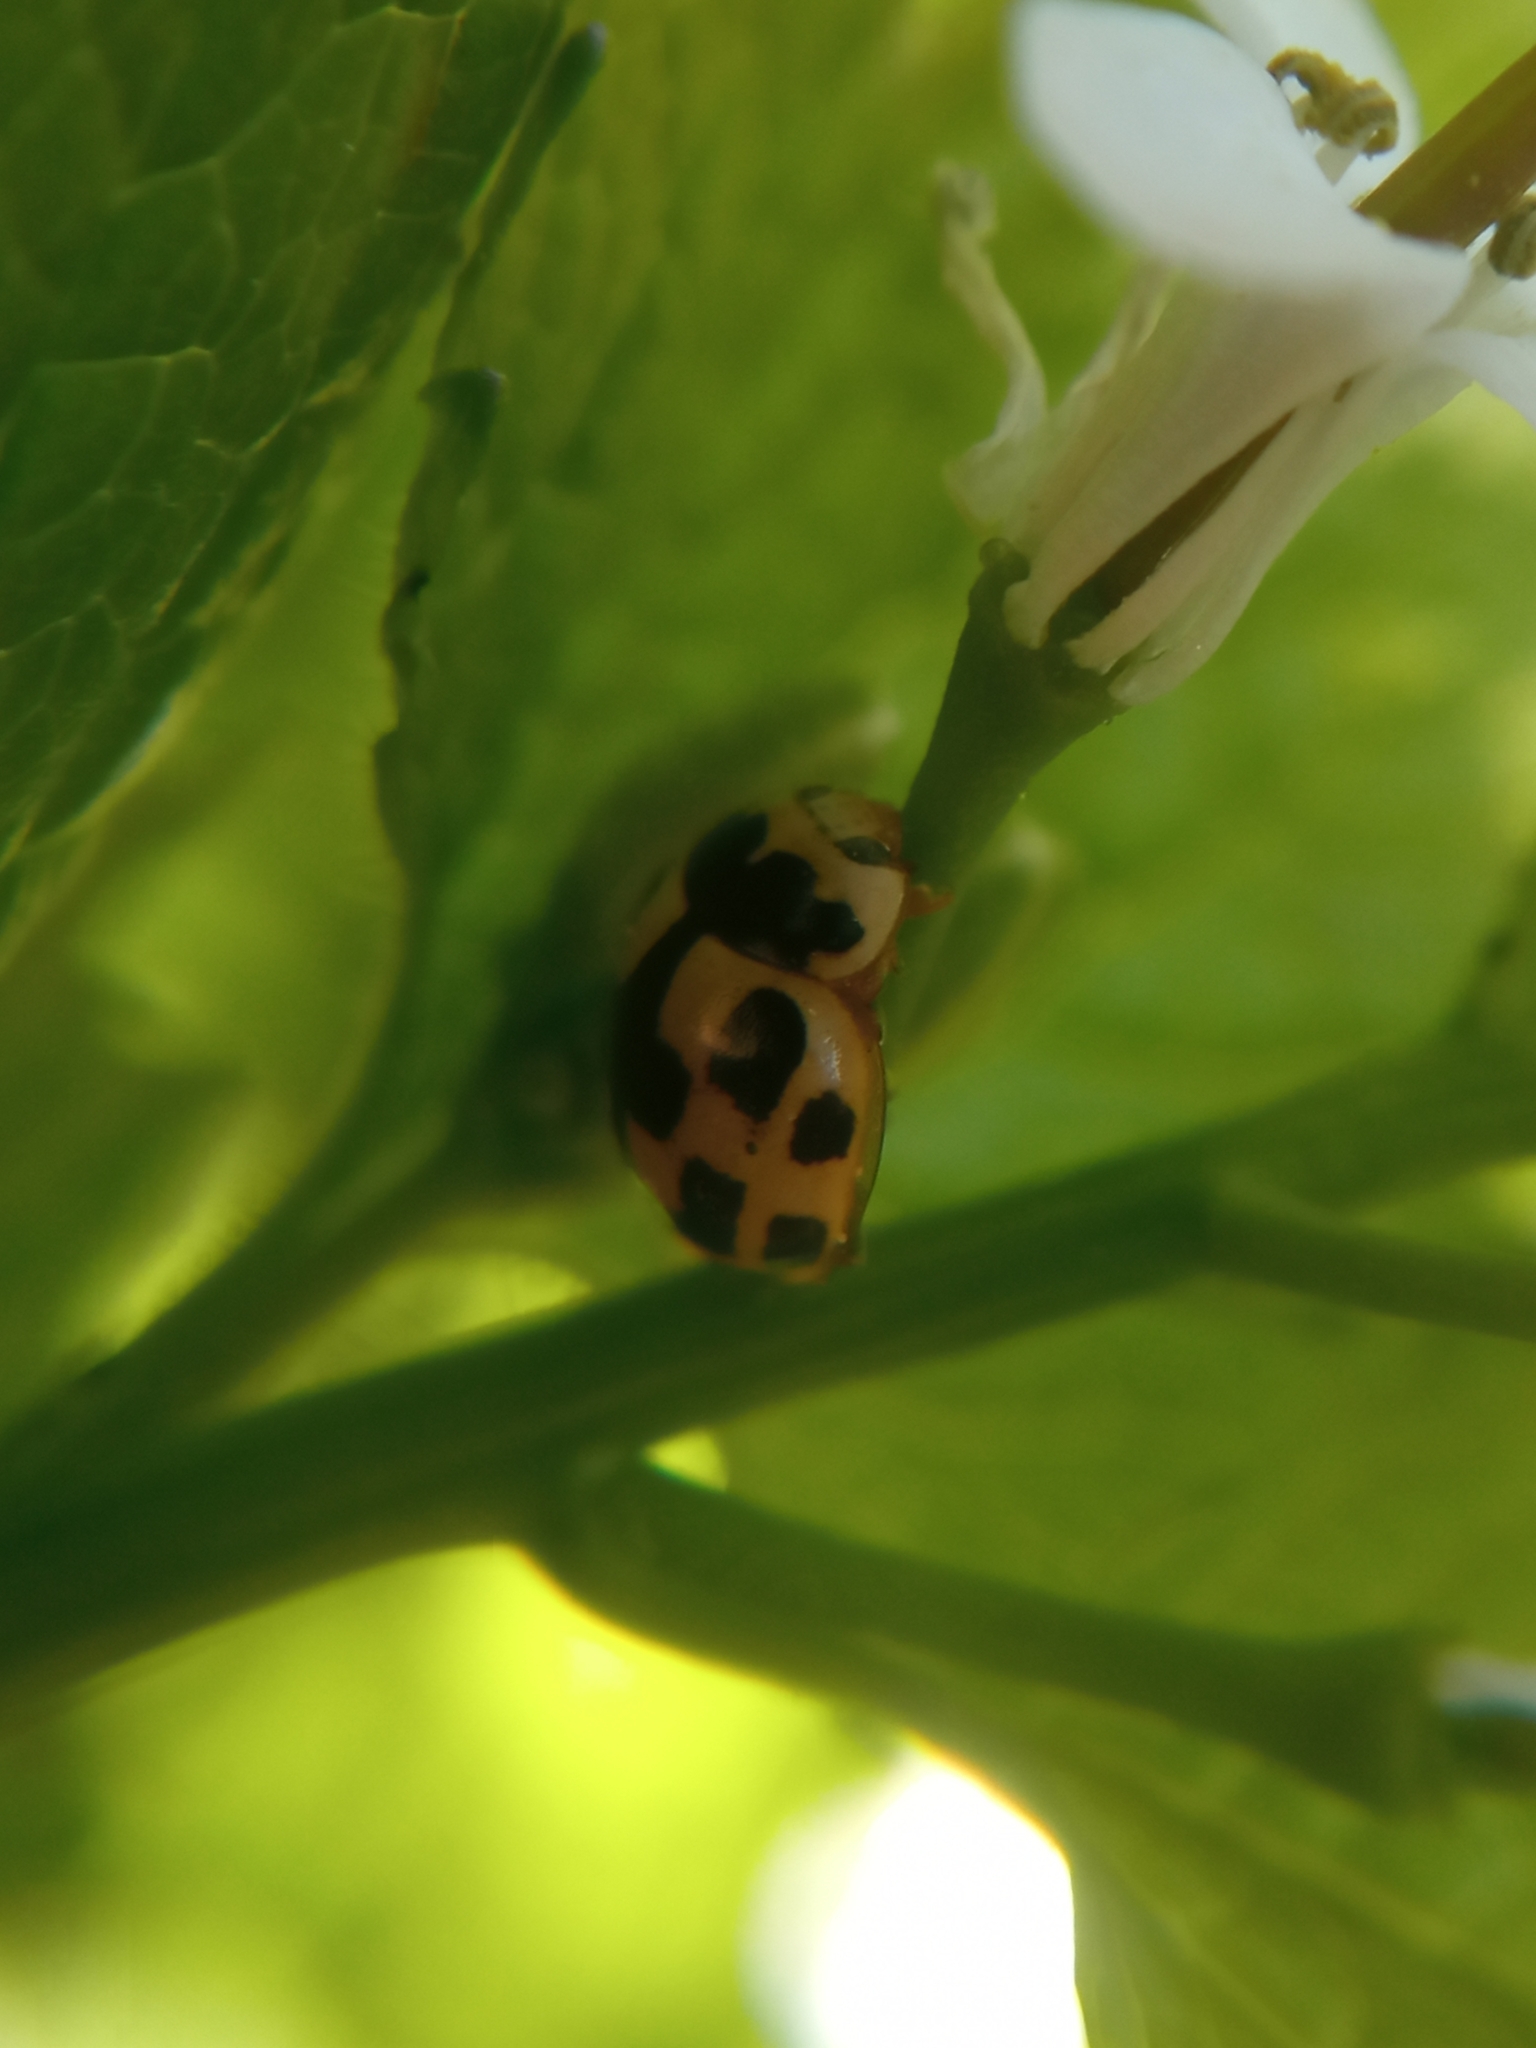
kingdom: Animalia
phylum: Arthropoda
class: Insecta
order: Coleoptera
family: Coccinellidae
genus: Propylaea
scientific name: Propylaea quatuordecimpunctata
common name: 14-spotted ladybird beetle
